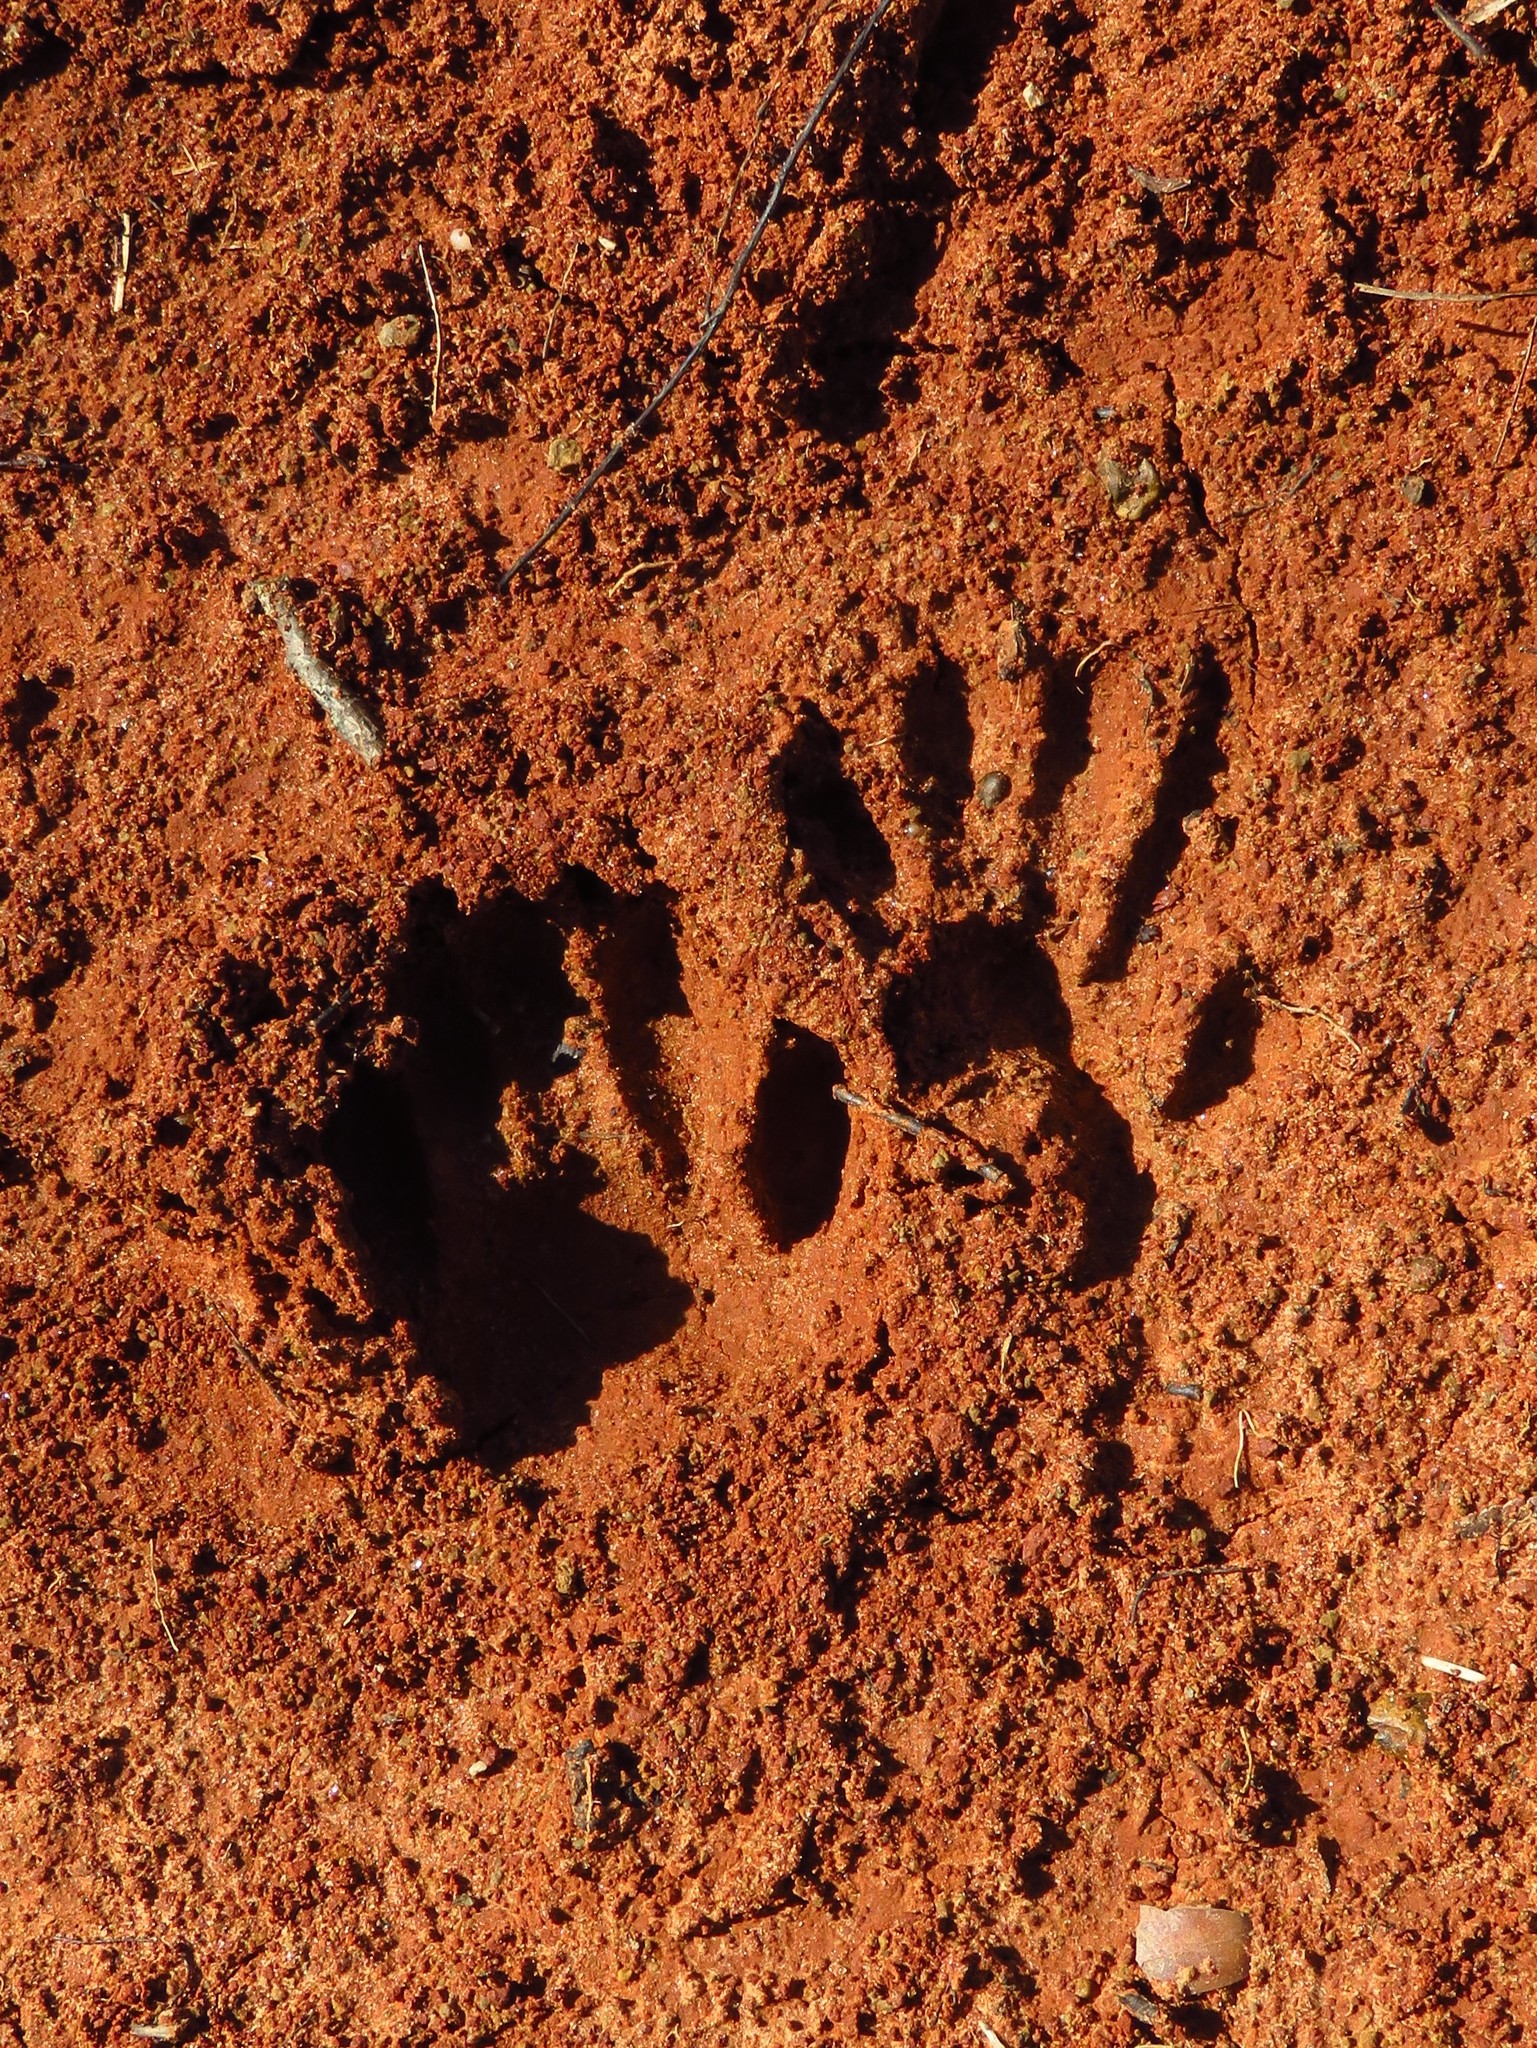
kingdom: Animalia
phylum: Chordata
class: Mammalia
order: Carnivora
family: Procyonidae
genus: Procyon
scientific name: Procyon lotor
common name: Raccoon
